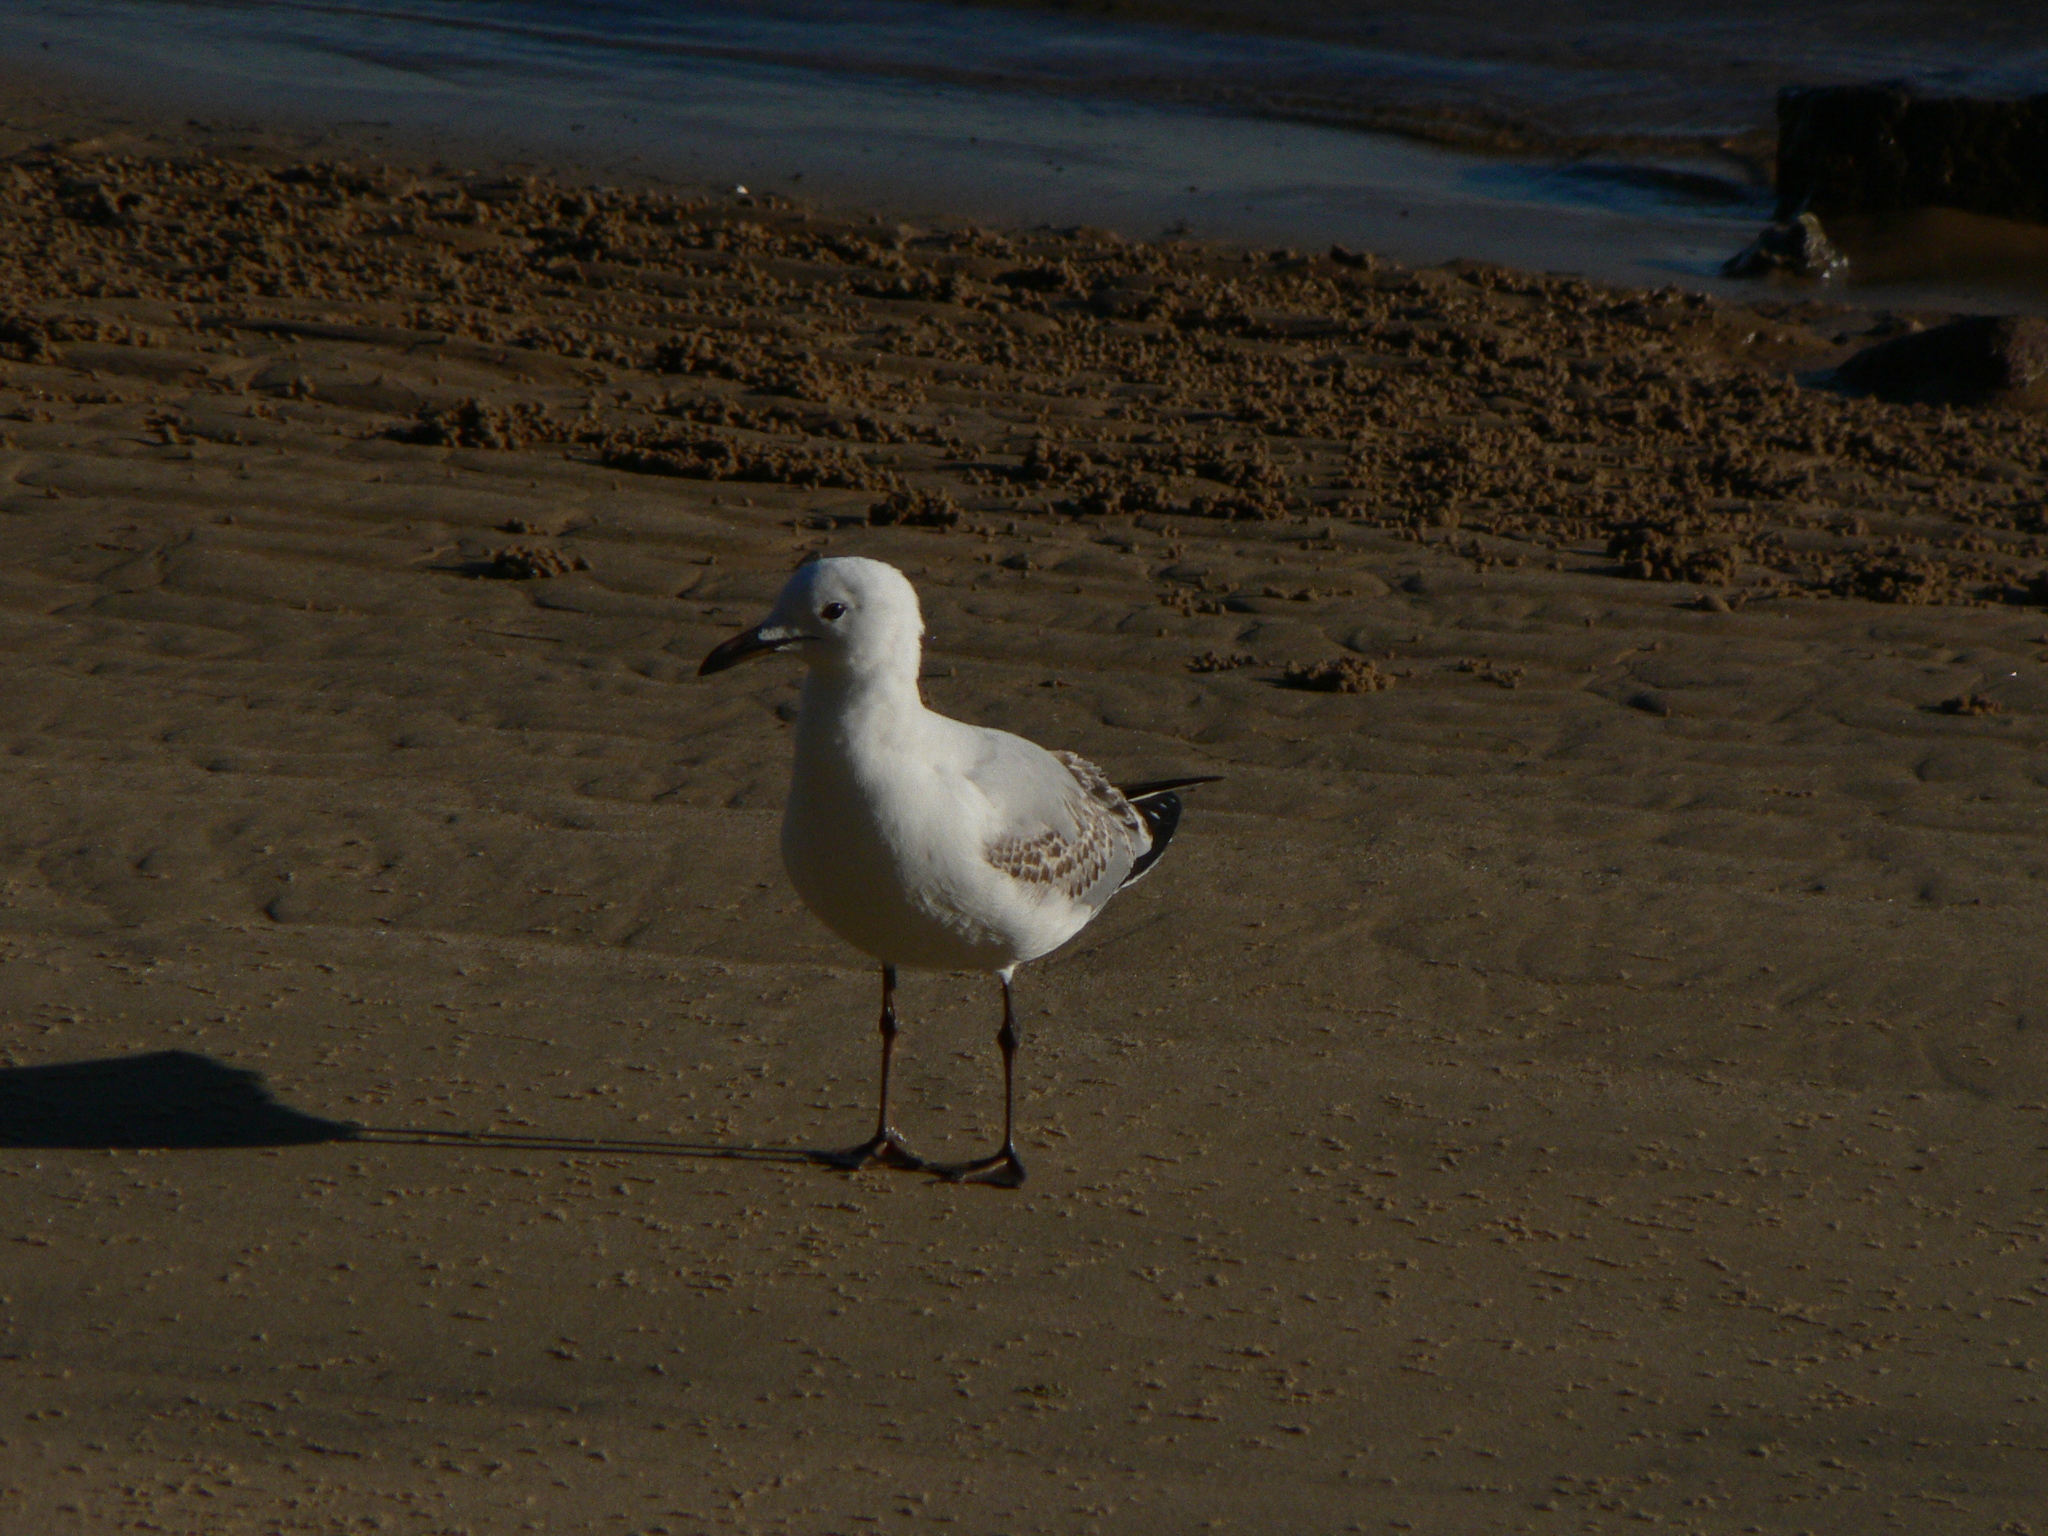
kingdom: Animalia
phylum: Chordata
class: Aves
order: Charadriiformes
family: Laridae
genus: Chroicocephalus
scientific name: Chroicocephalus novaehollandiae
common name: Silver gull
